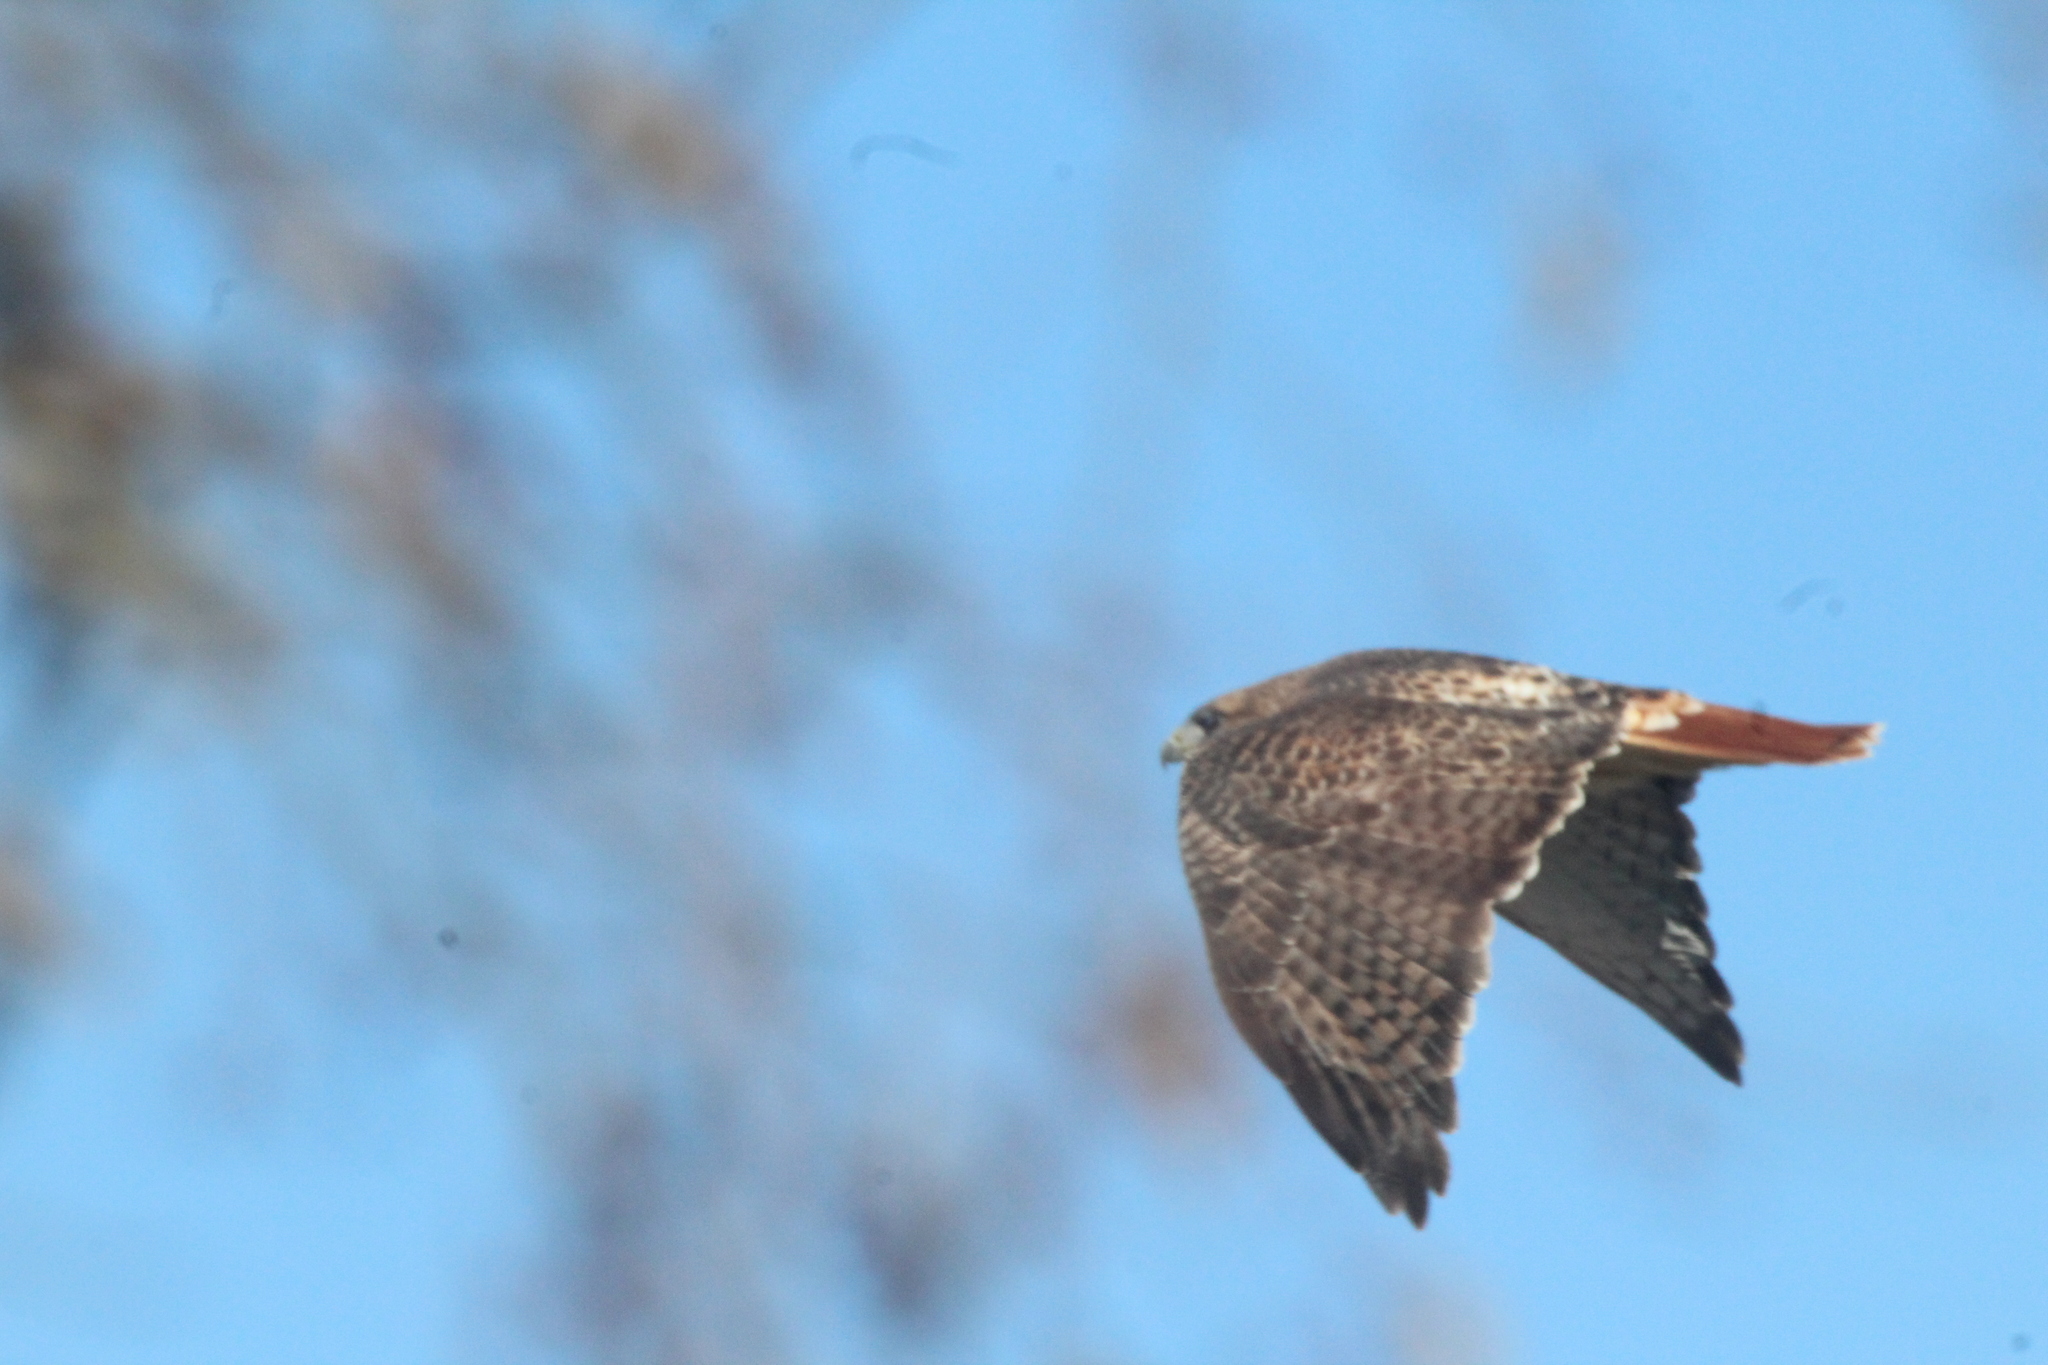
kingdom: Animalia
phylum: Chordata
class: Aves
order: Accipitriformes
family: Accipitridae
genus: Buteo
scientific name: Buteo jamaicensis
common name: Red-tailed hawk
